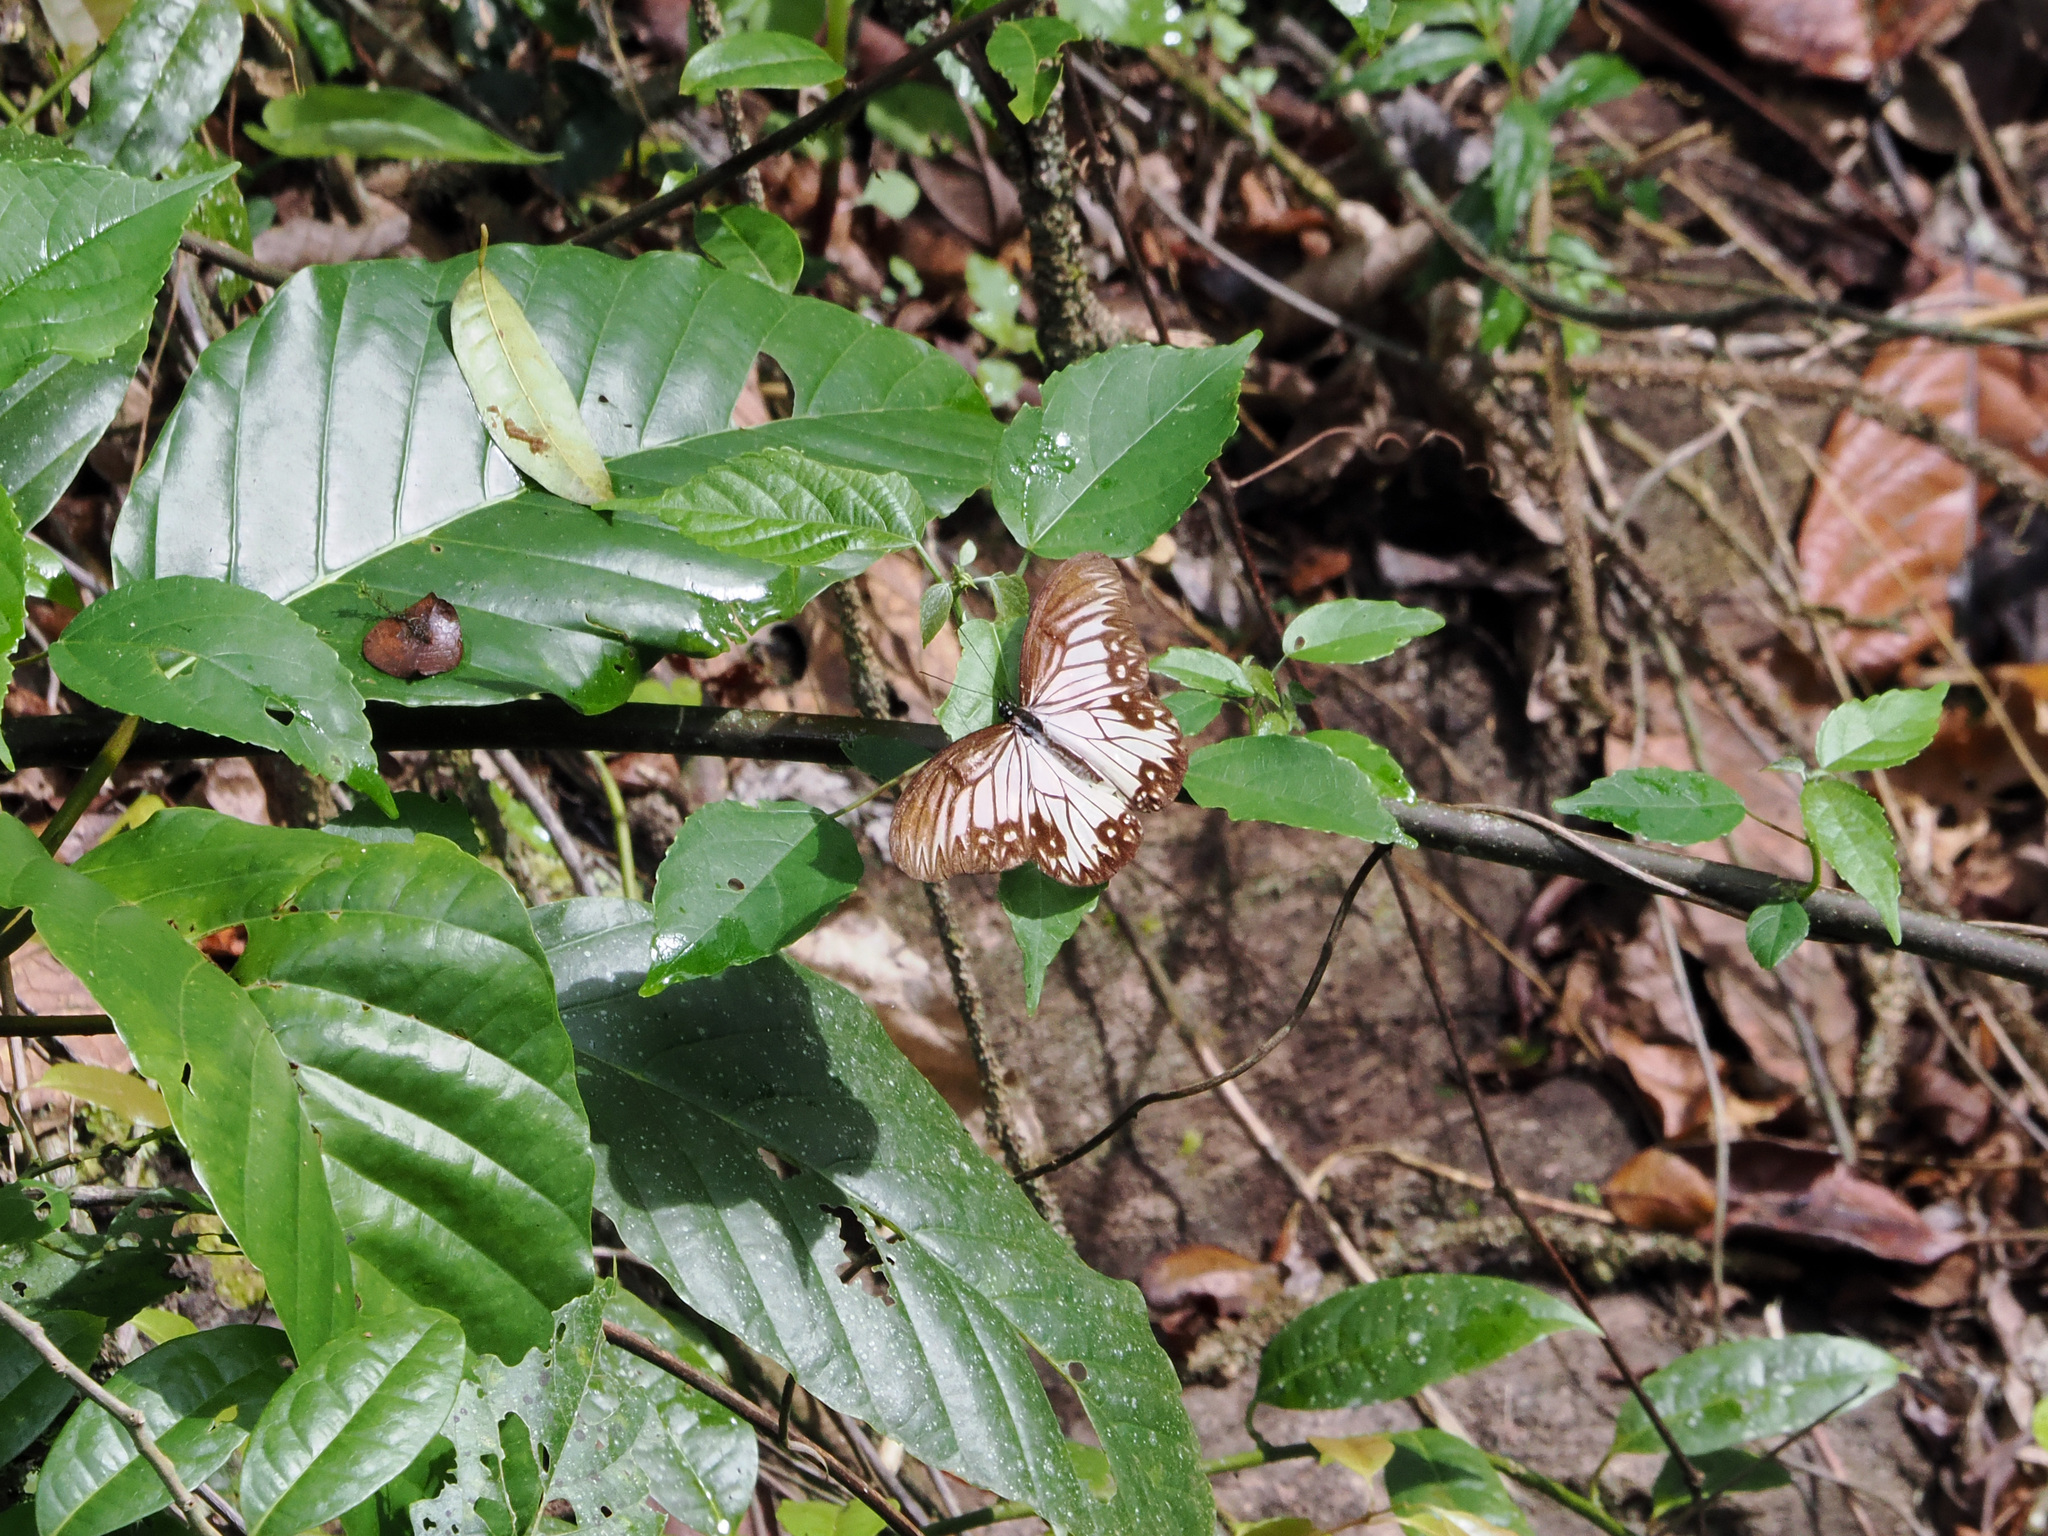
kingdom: Animalia
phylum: Arthropoda
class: Insecta
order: Lepidoptera
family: Nymphalidae
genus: Zethera
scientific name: Zethera incerta
